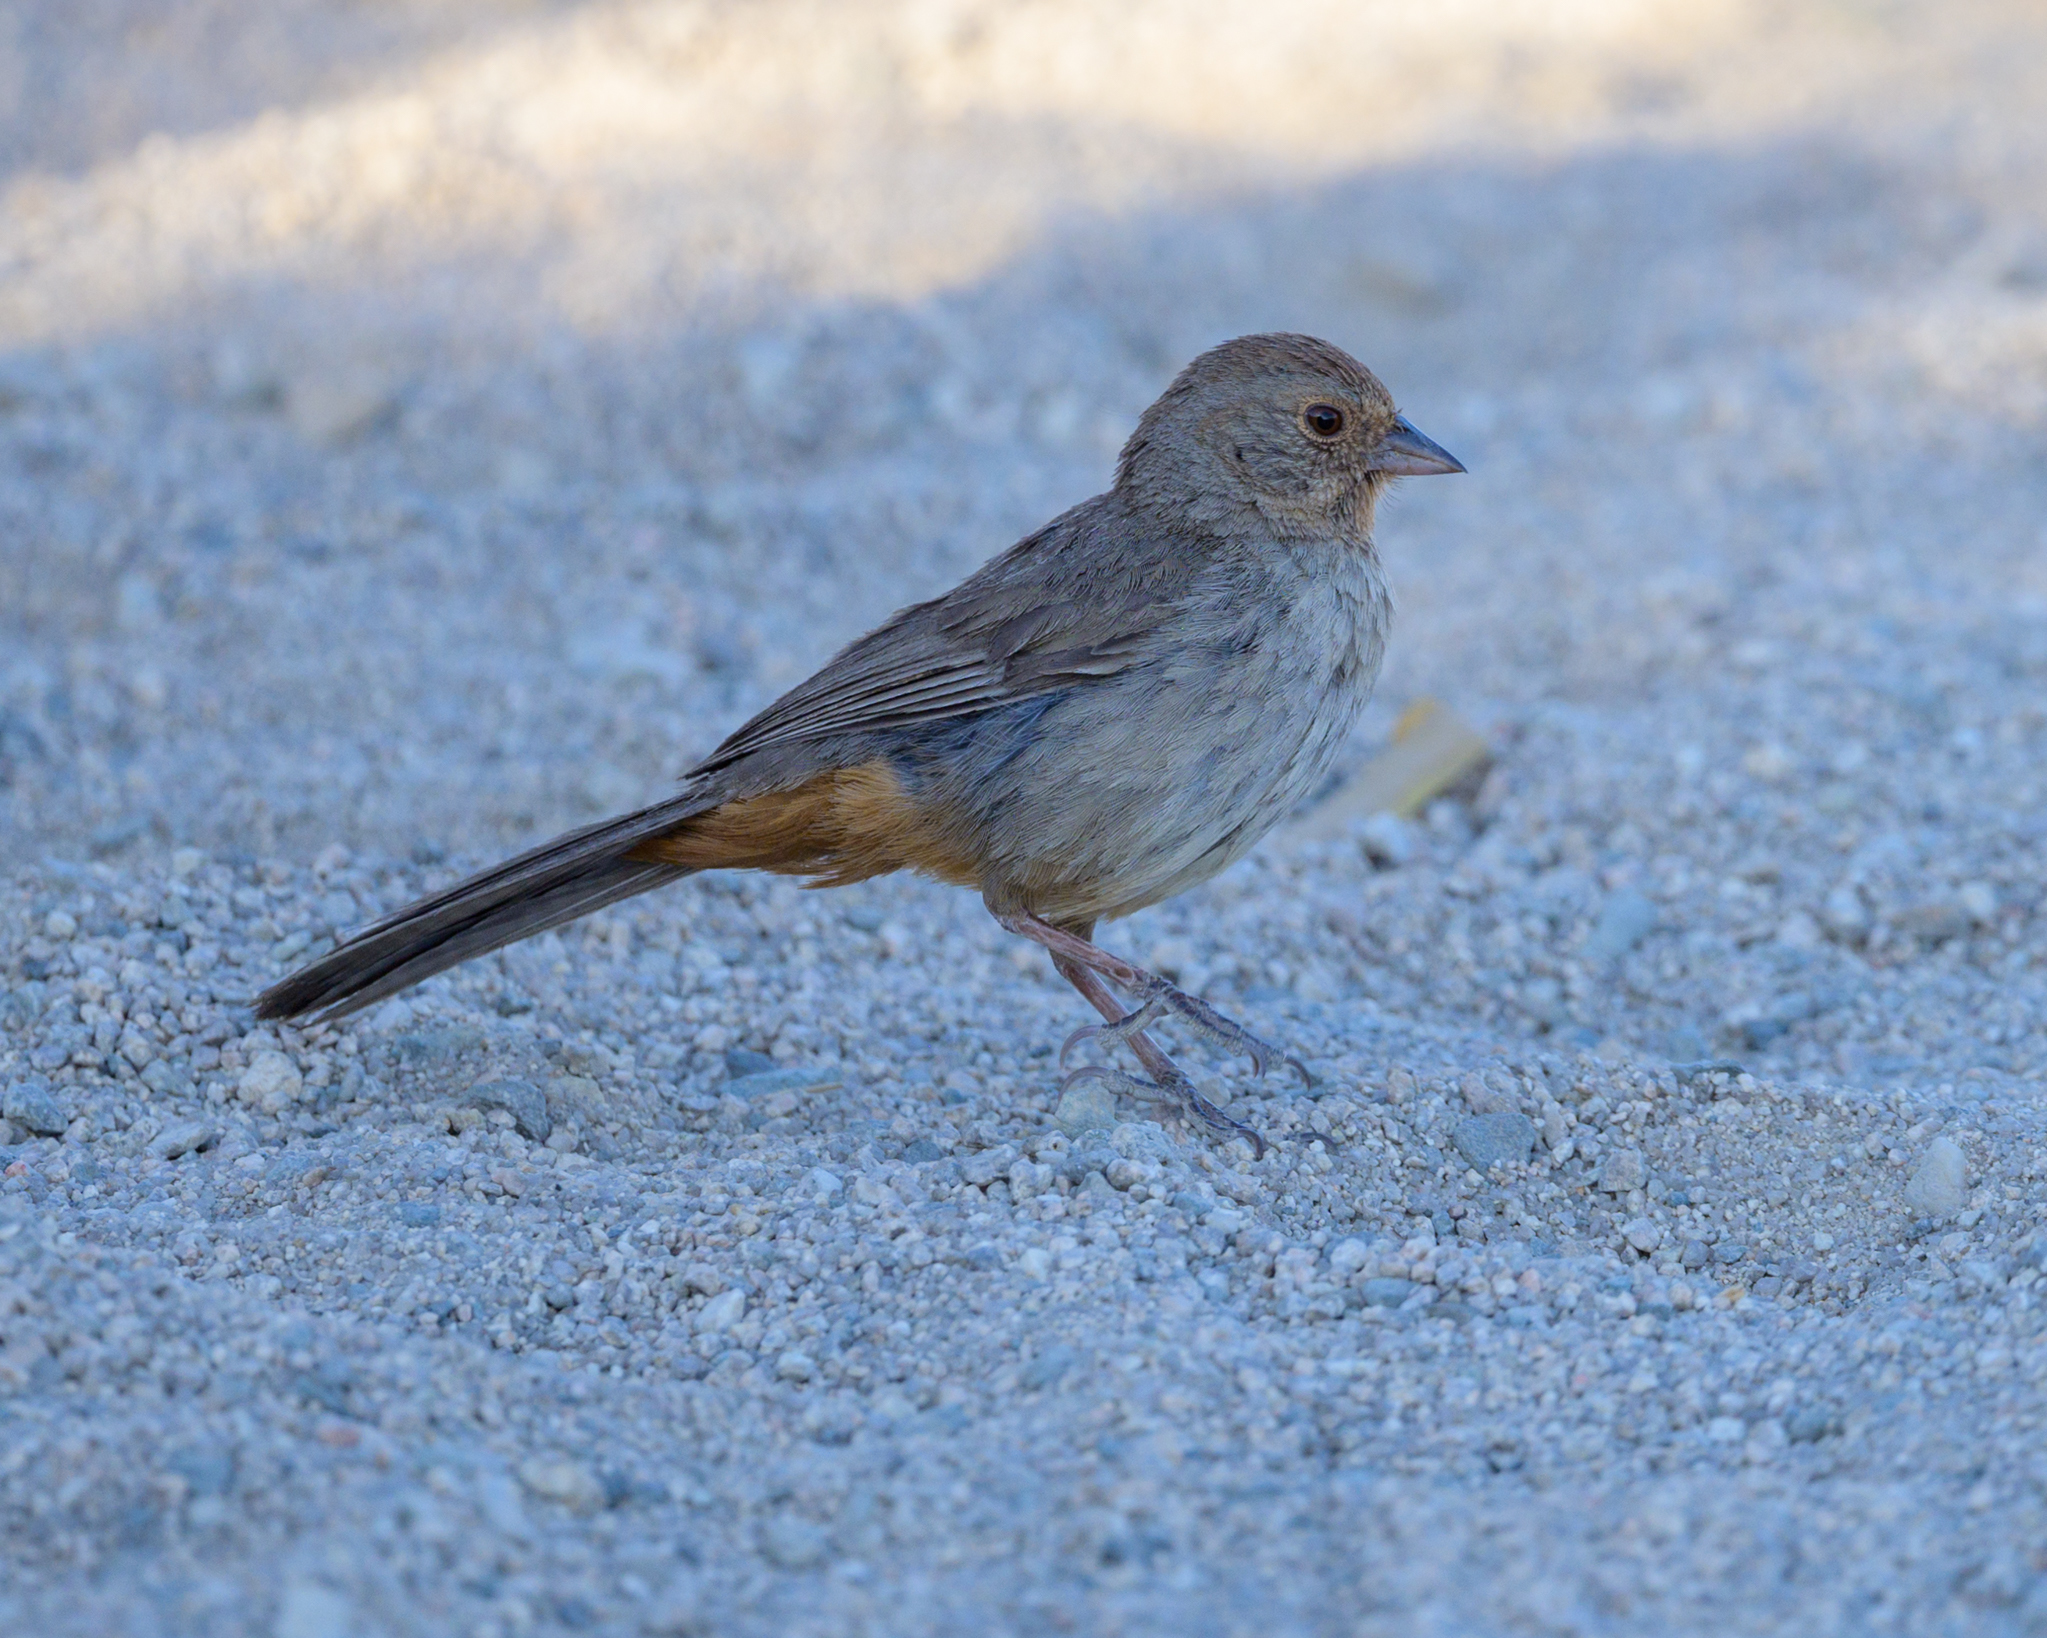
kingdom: Animalia
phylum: Chordata
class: Aves
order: Passeriformes
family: Passerellidae
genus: Melozone
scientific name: Melozone crissalis
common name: California towhee
